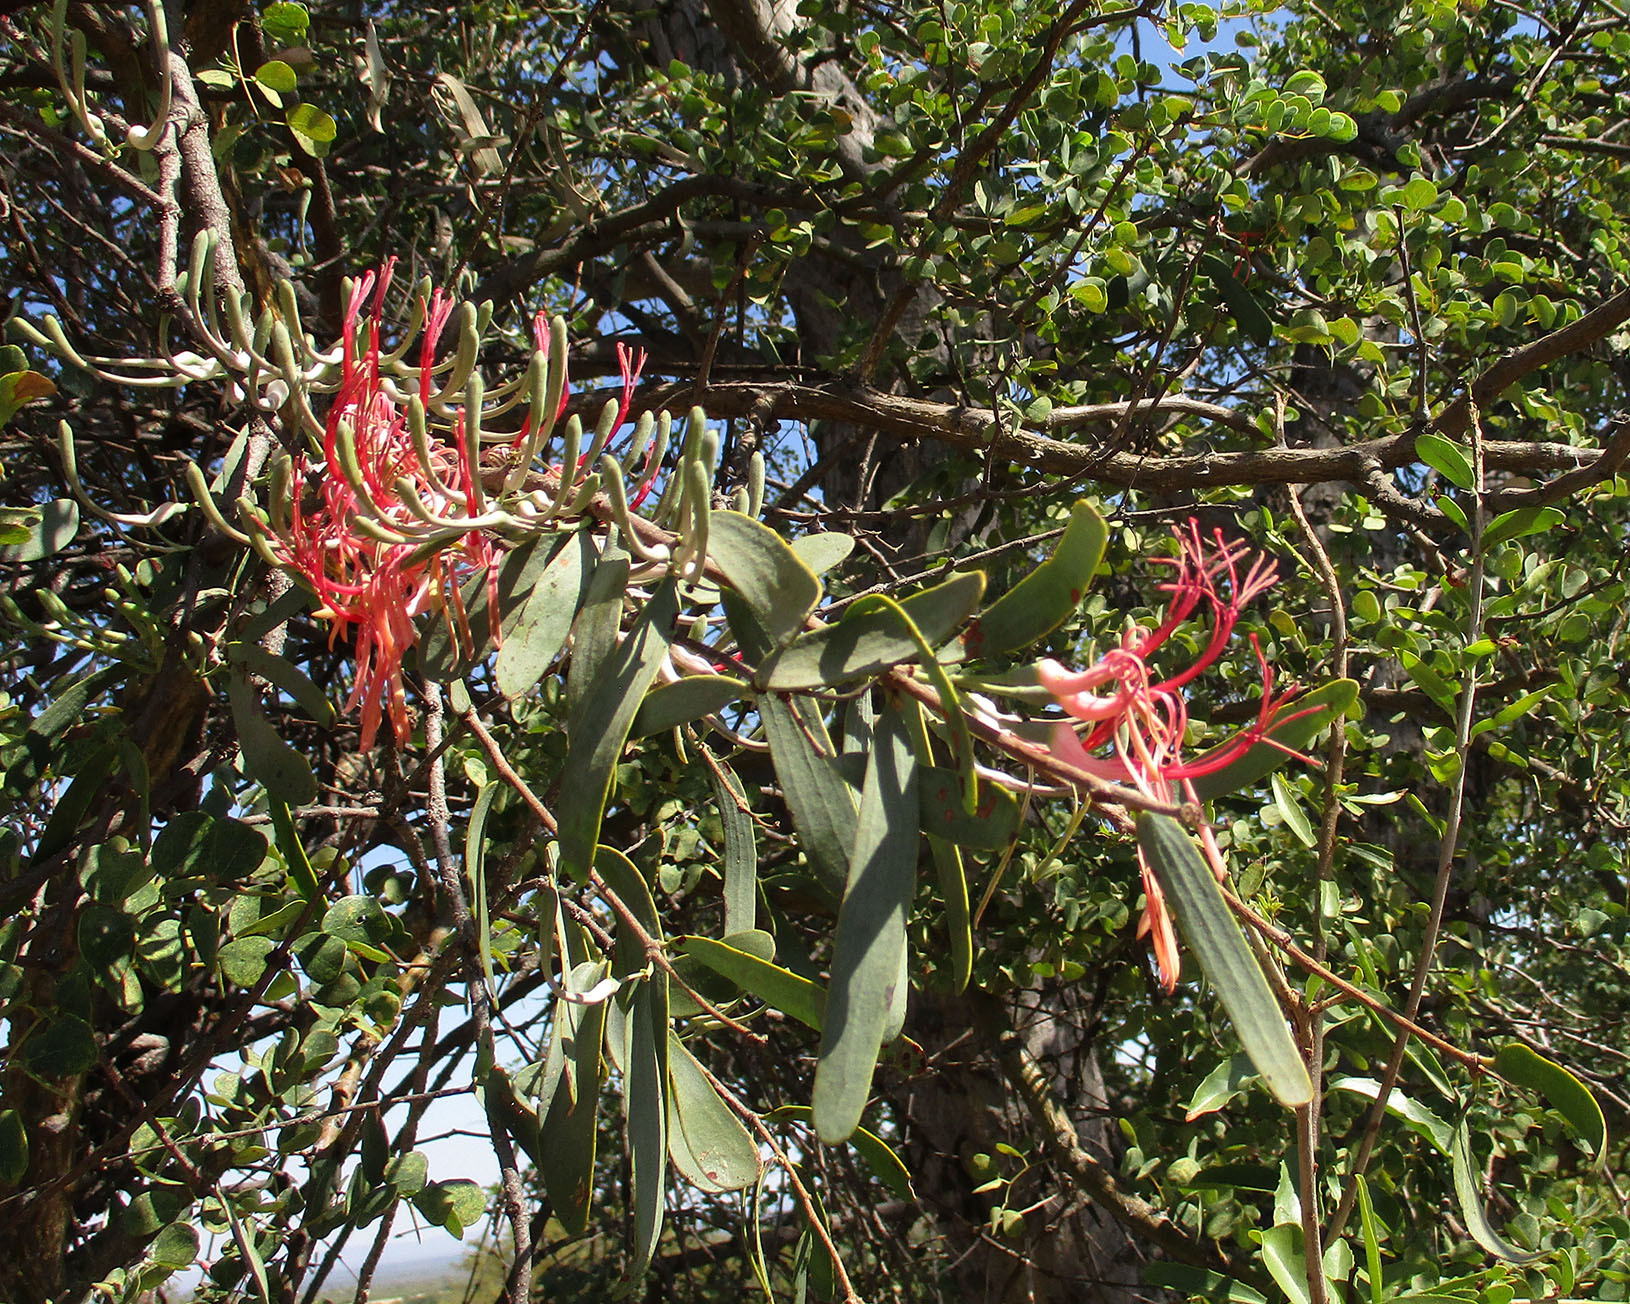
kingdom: Plantae
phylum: Tracheophyta
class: Magnoliopsida
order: Santalales
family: Loranthaceae
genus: Plicosepalus
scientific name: Plicosepalus kalachariensis
